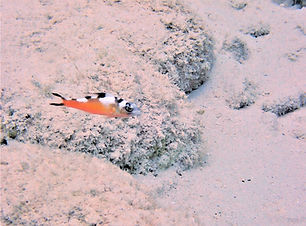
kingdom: Animalia
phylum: Chordata
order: Perciformes
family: Serranidae
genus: Serranus
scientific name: Serranus tabacarius
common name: Tobaccofish
